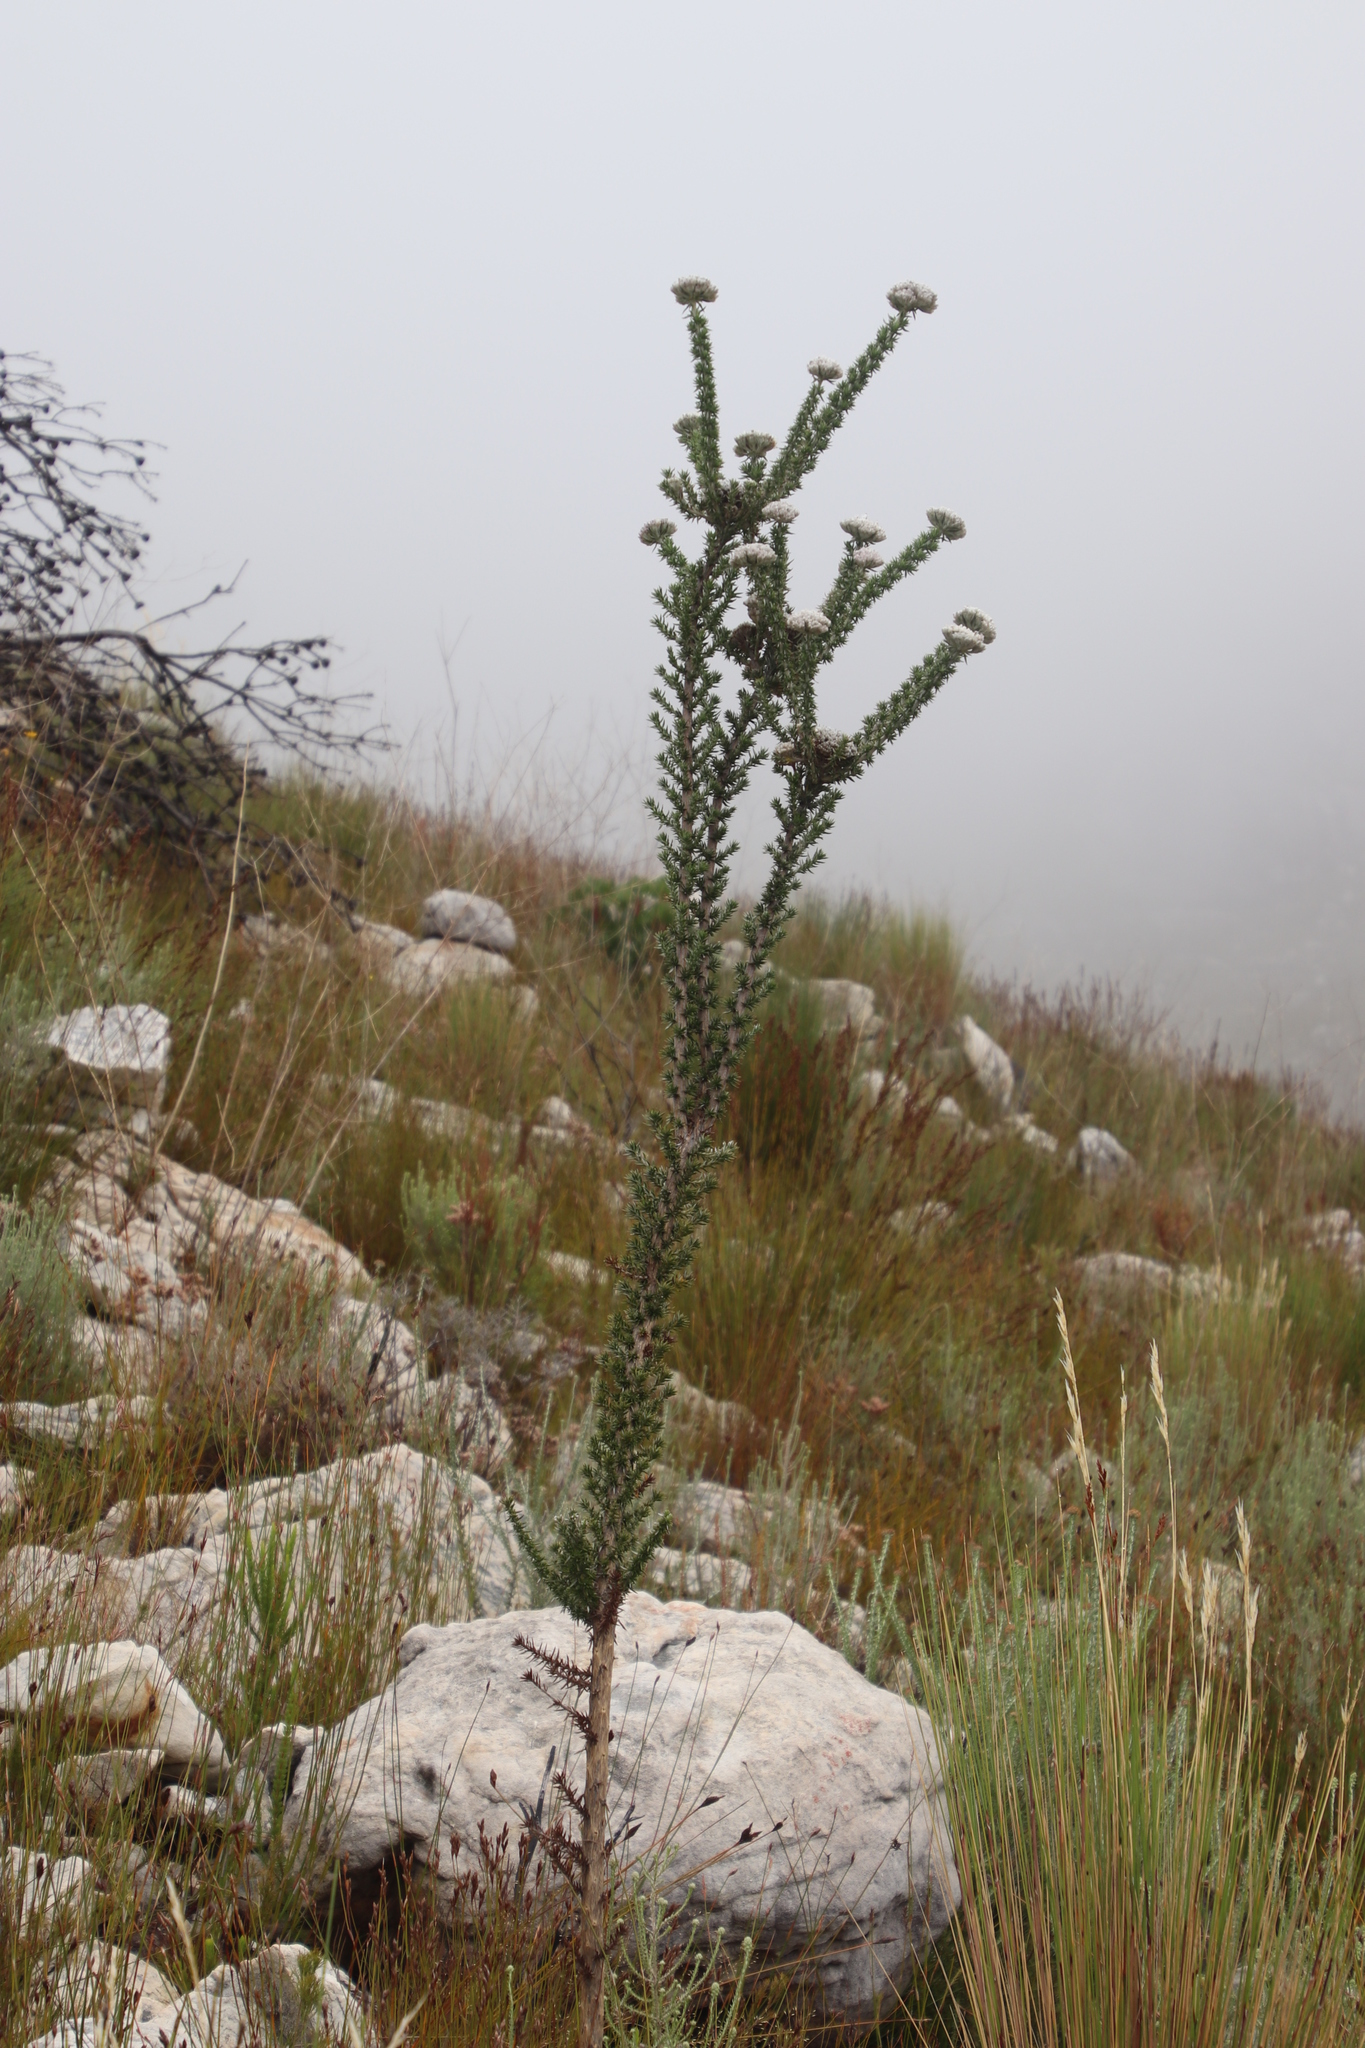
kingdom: Plantae
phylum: Tracheophyta
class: Magnoliopsida
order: Asterales
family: Asteraceae
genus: Metalasia
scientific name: Metalasia muraltiifolia
